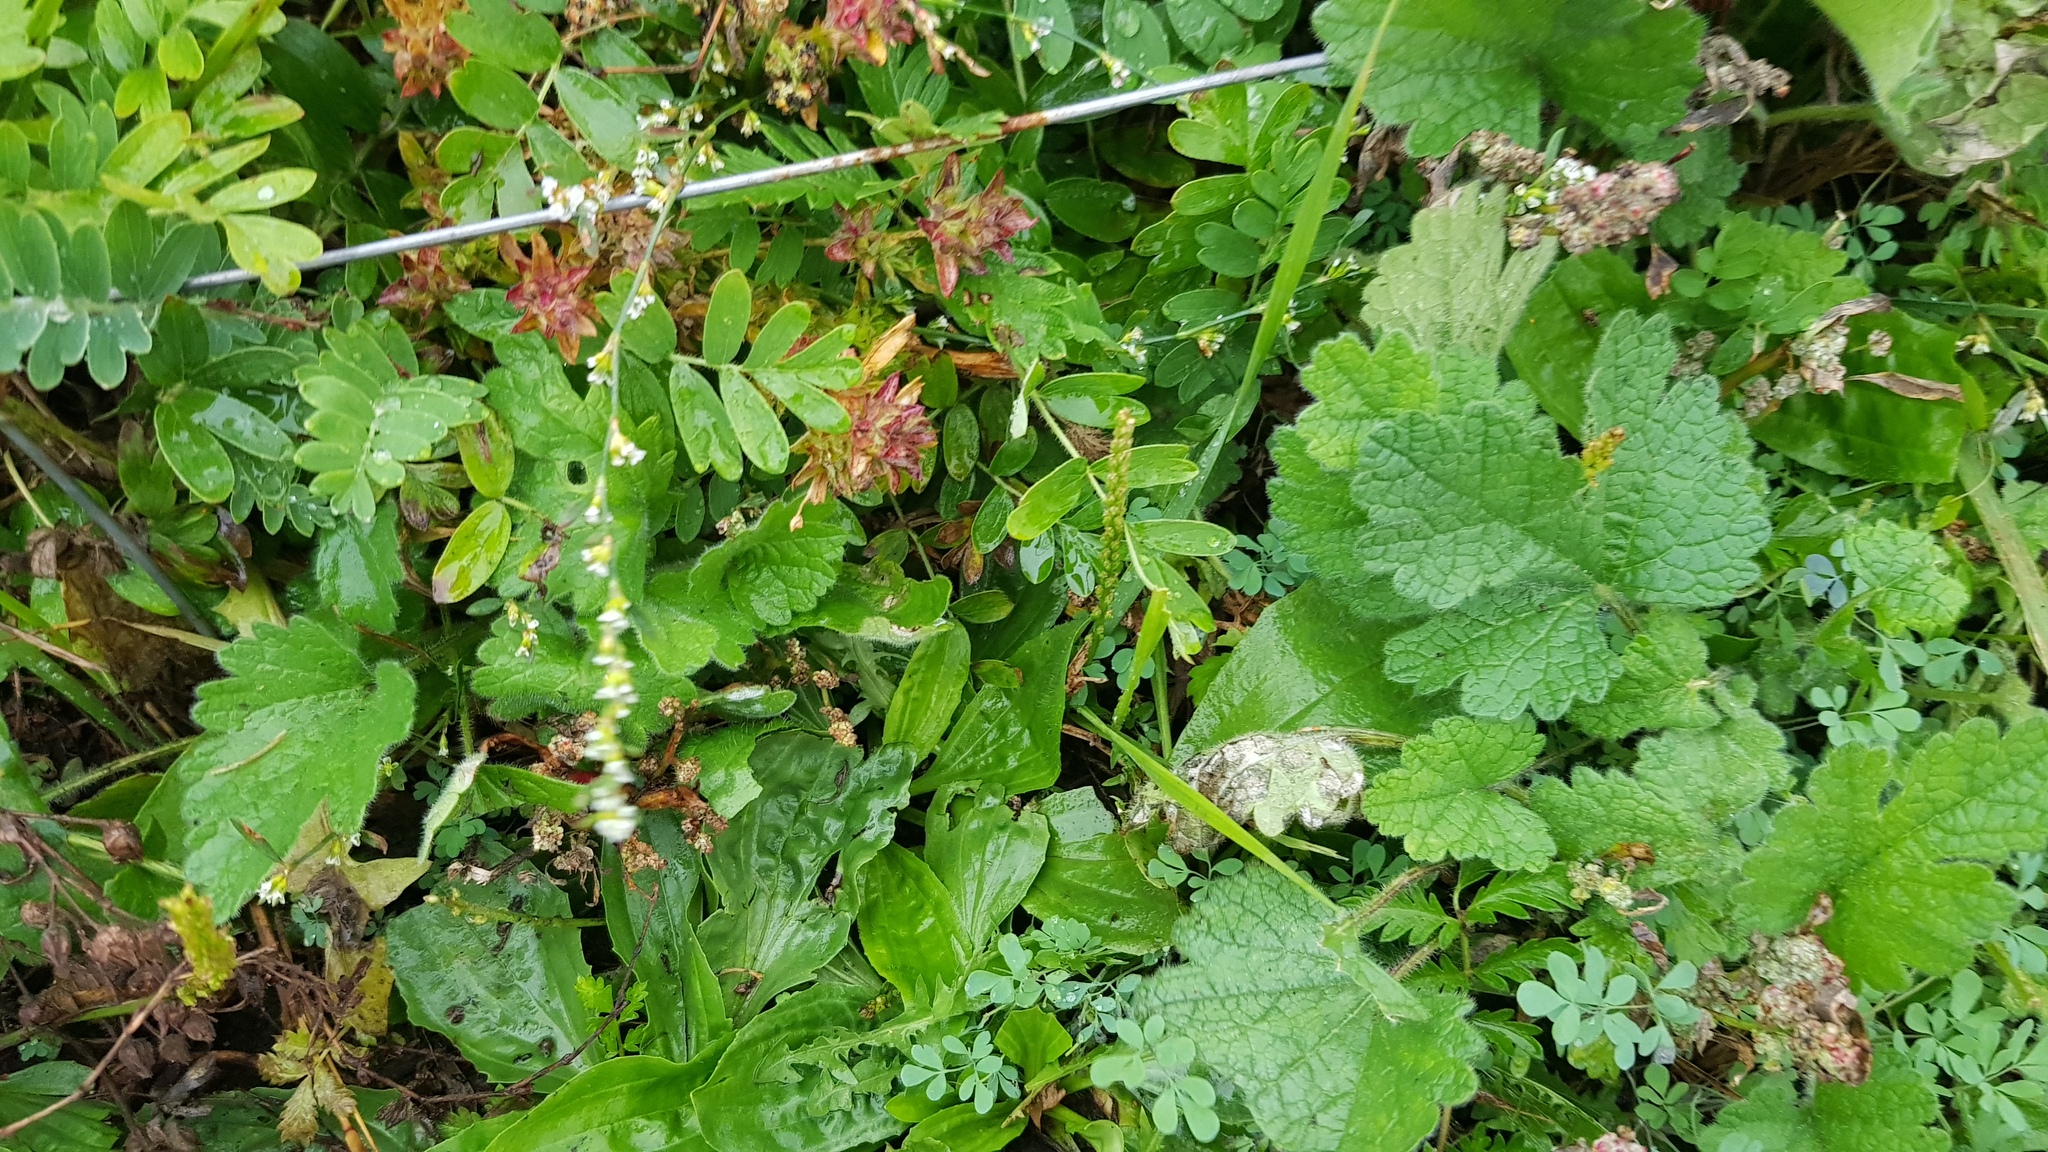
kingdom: Plantae
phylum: Tracheophyta
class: Magnoliopsida
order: Lamiales
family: Lamiaceae
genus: Lagopsis
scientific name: Lagopsis supina
